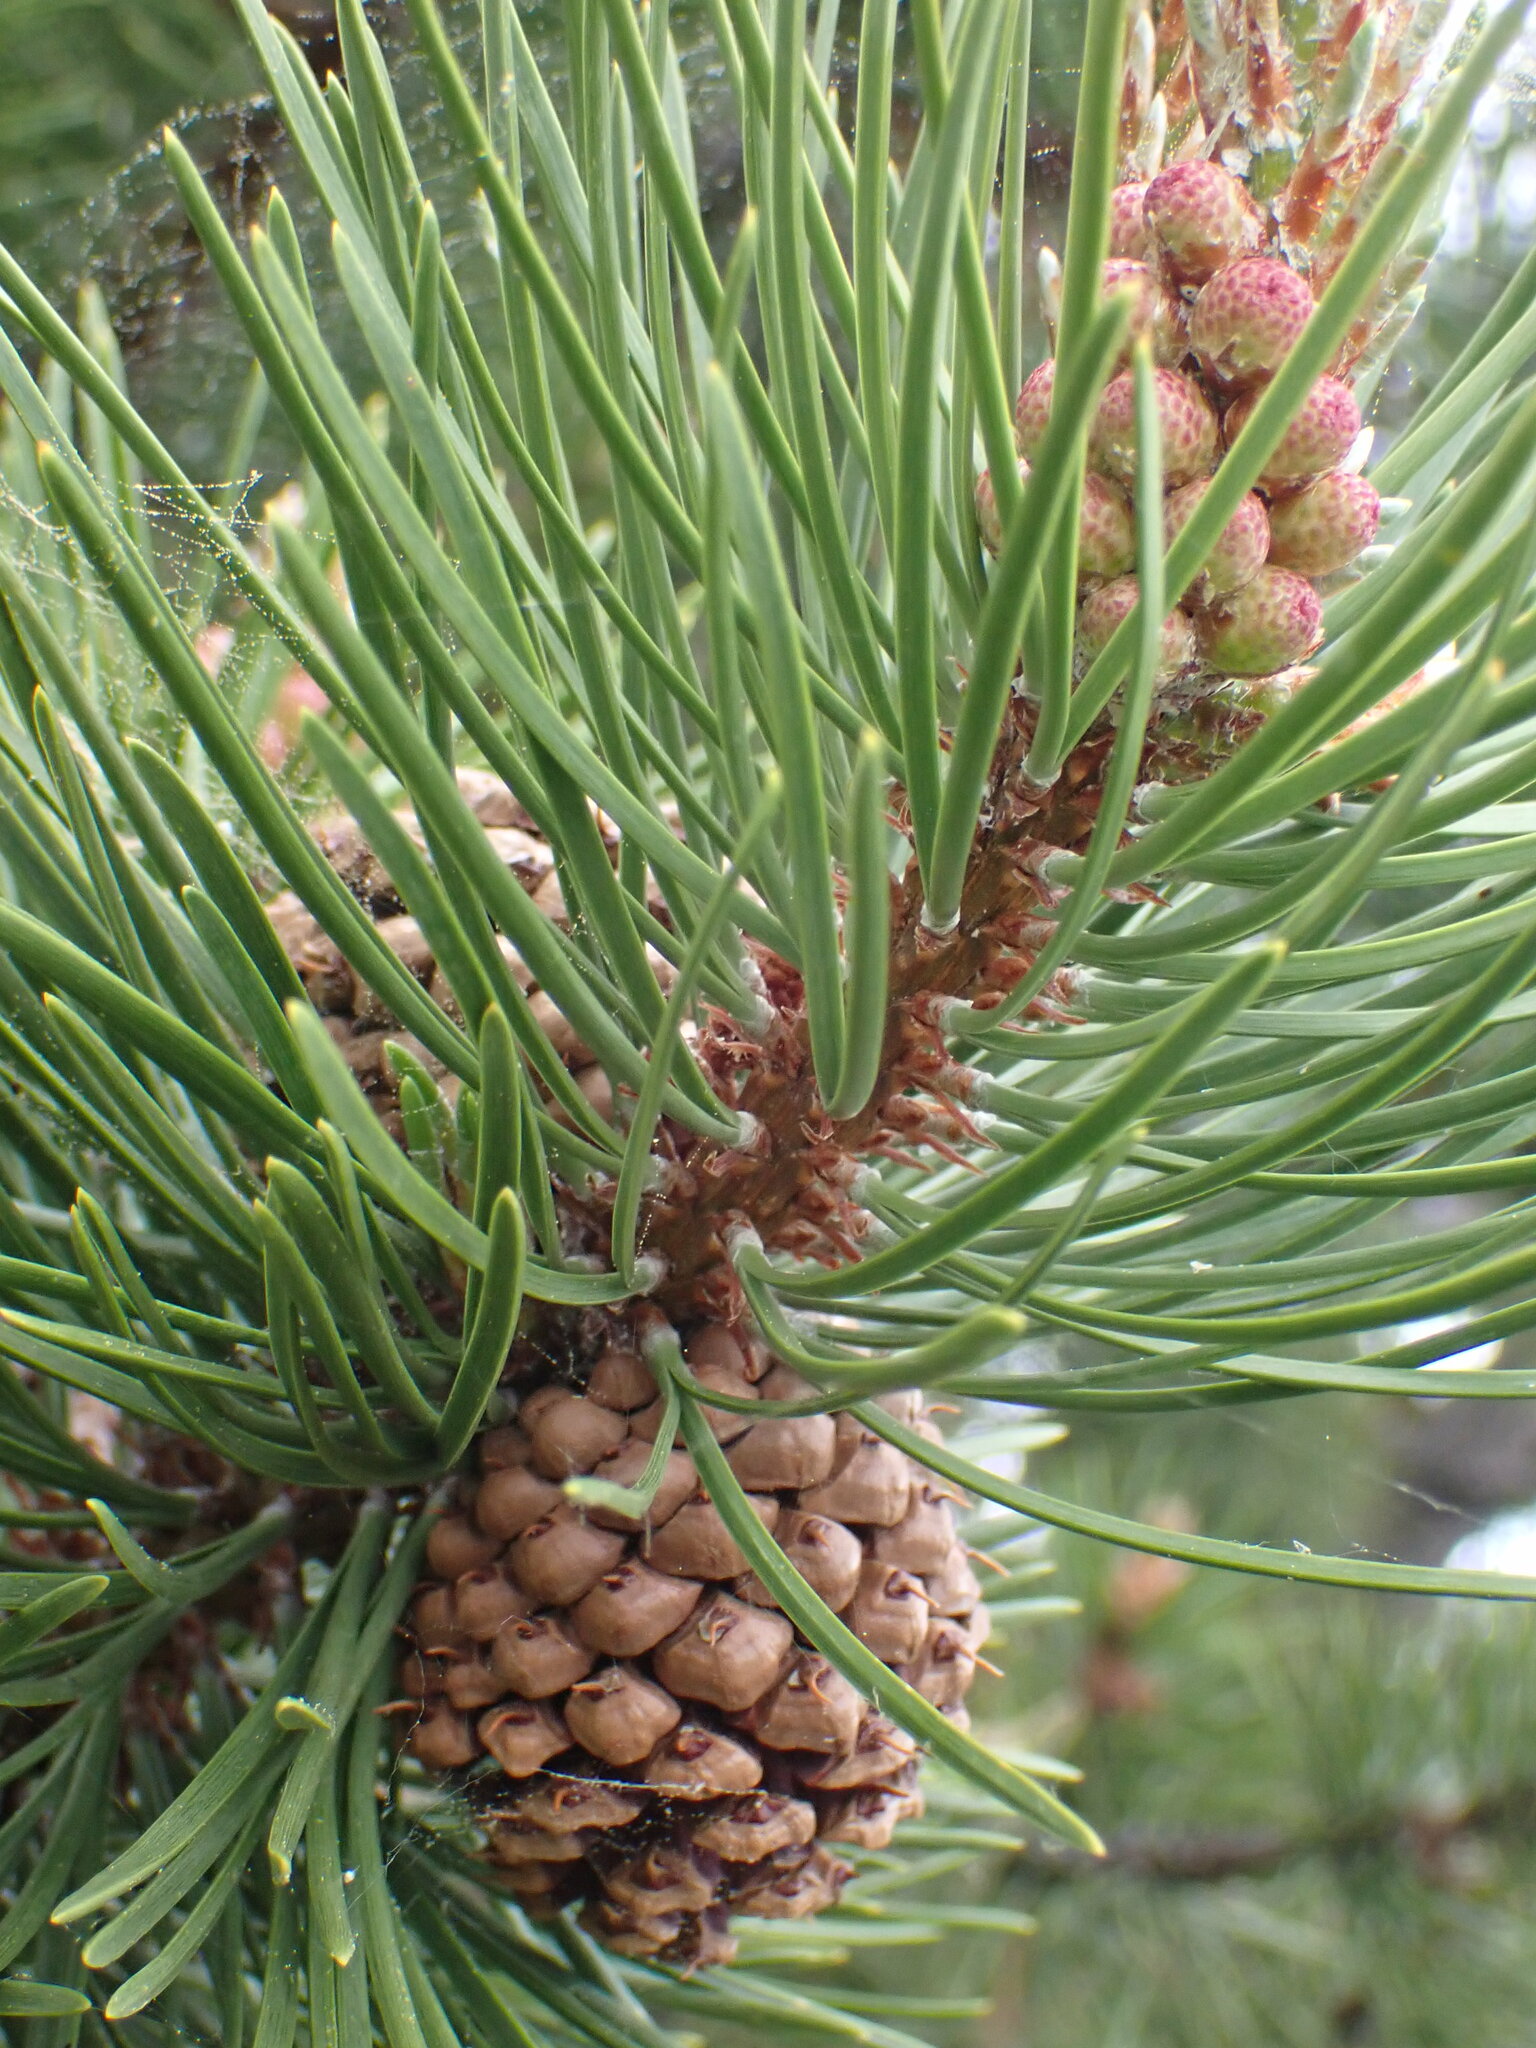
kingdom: Plantae
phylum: Tracheophyta
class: Pinopsida
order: Pinales
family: Pinaceae
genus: Pinus
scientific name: Pinus contorta
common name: Lodgepole pine
